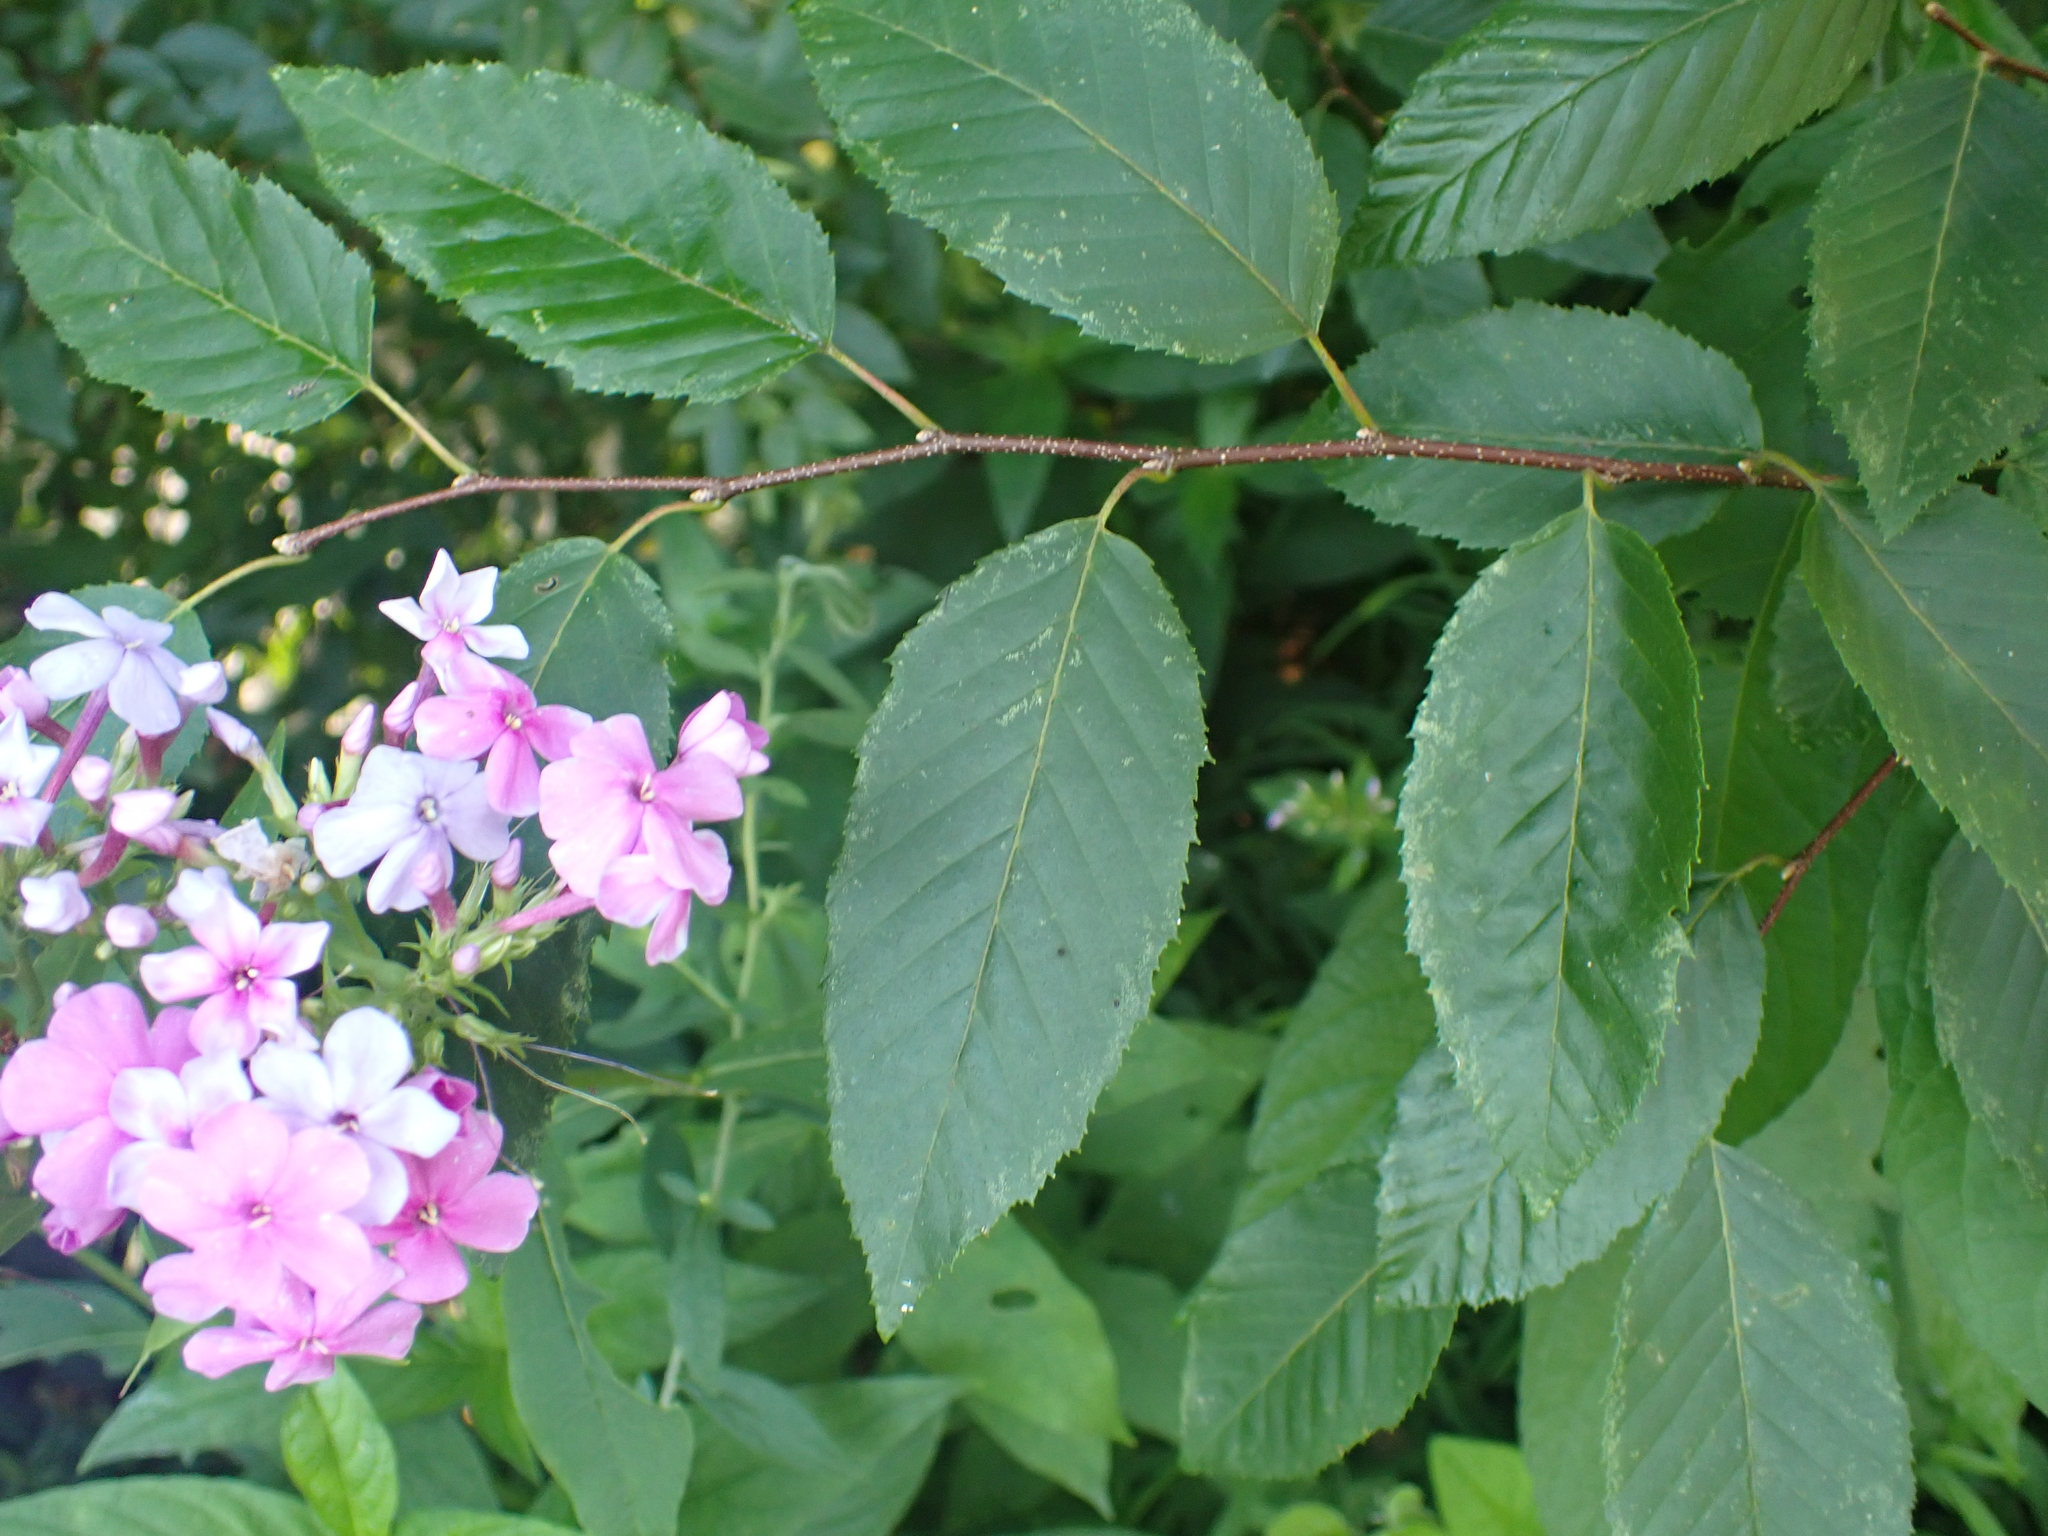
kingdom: Plantae
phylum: Tracheophyta
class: Magnoliopsida
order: Ericales
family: Polemoniaceae
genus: Phlox
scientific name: Phlox paniculata
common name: Fall phlox
